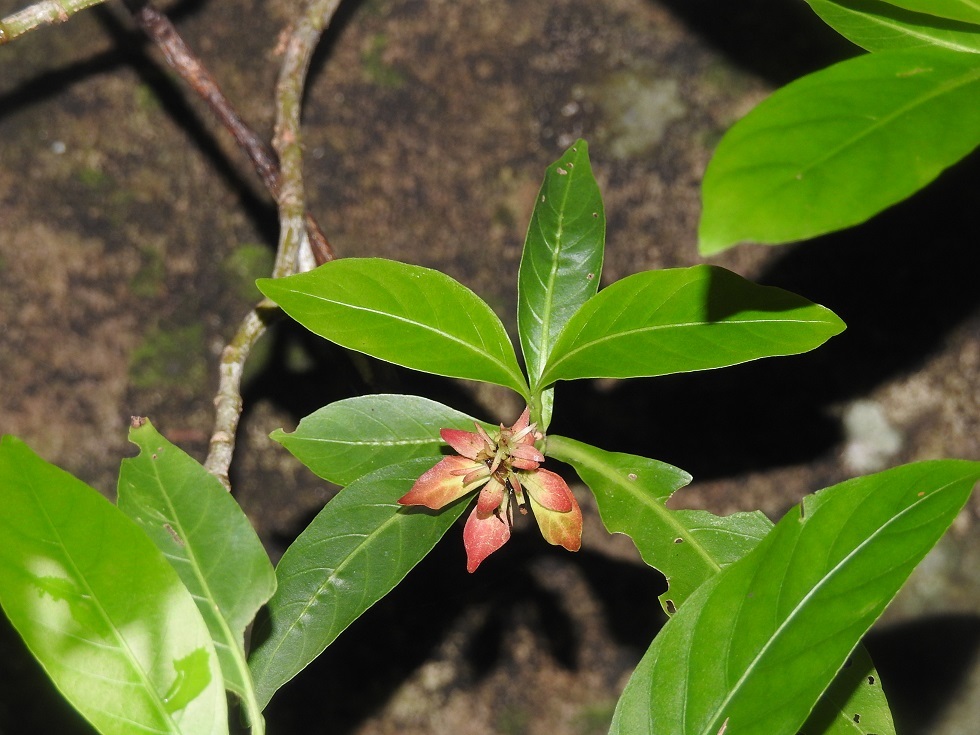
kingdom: Plantae
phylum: Tracheophyta
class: Magnoliopsida
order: Lamiales
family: Acanthaceae
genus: Justicia
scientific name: Justicia mirandae
